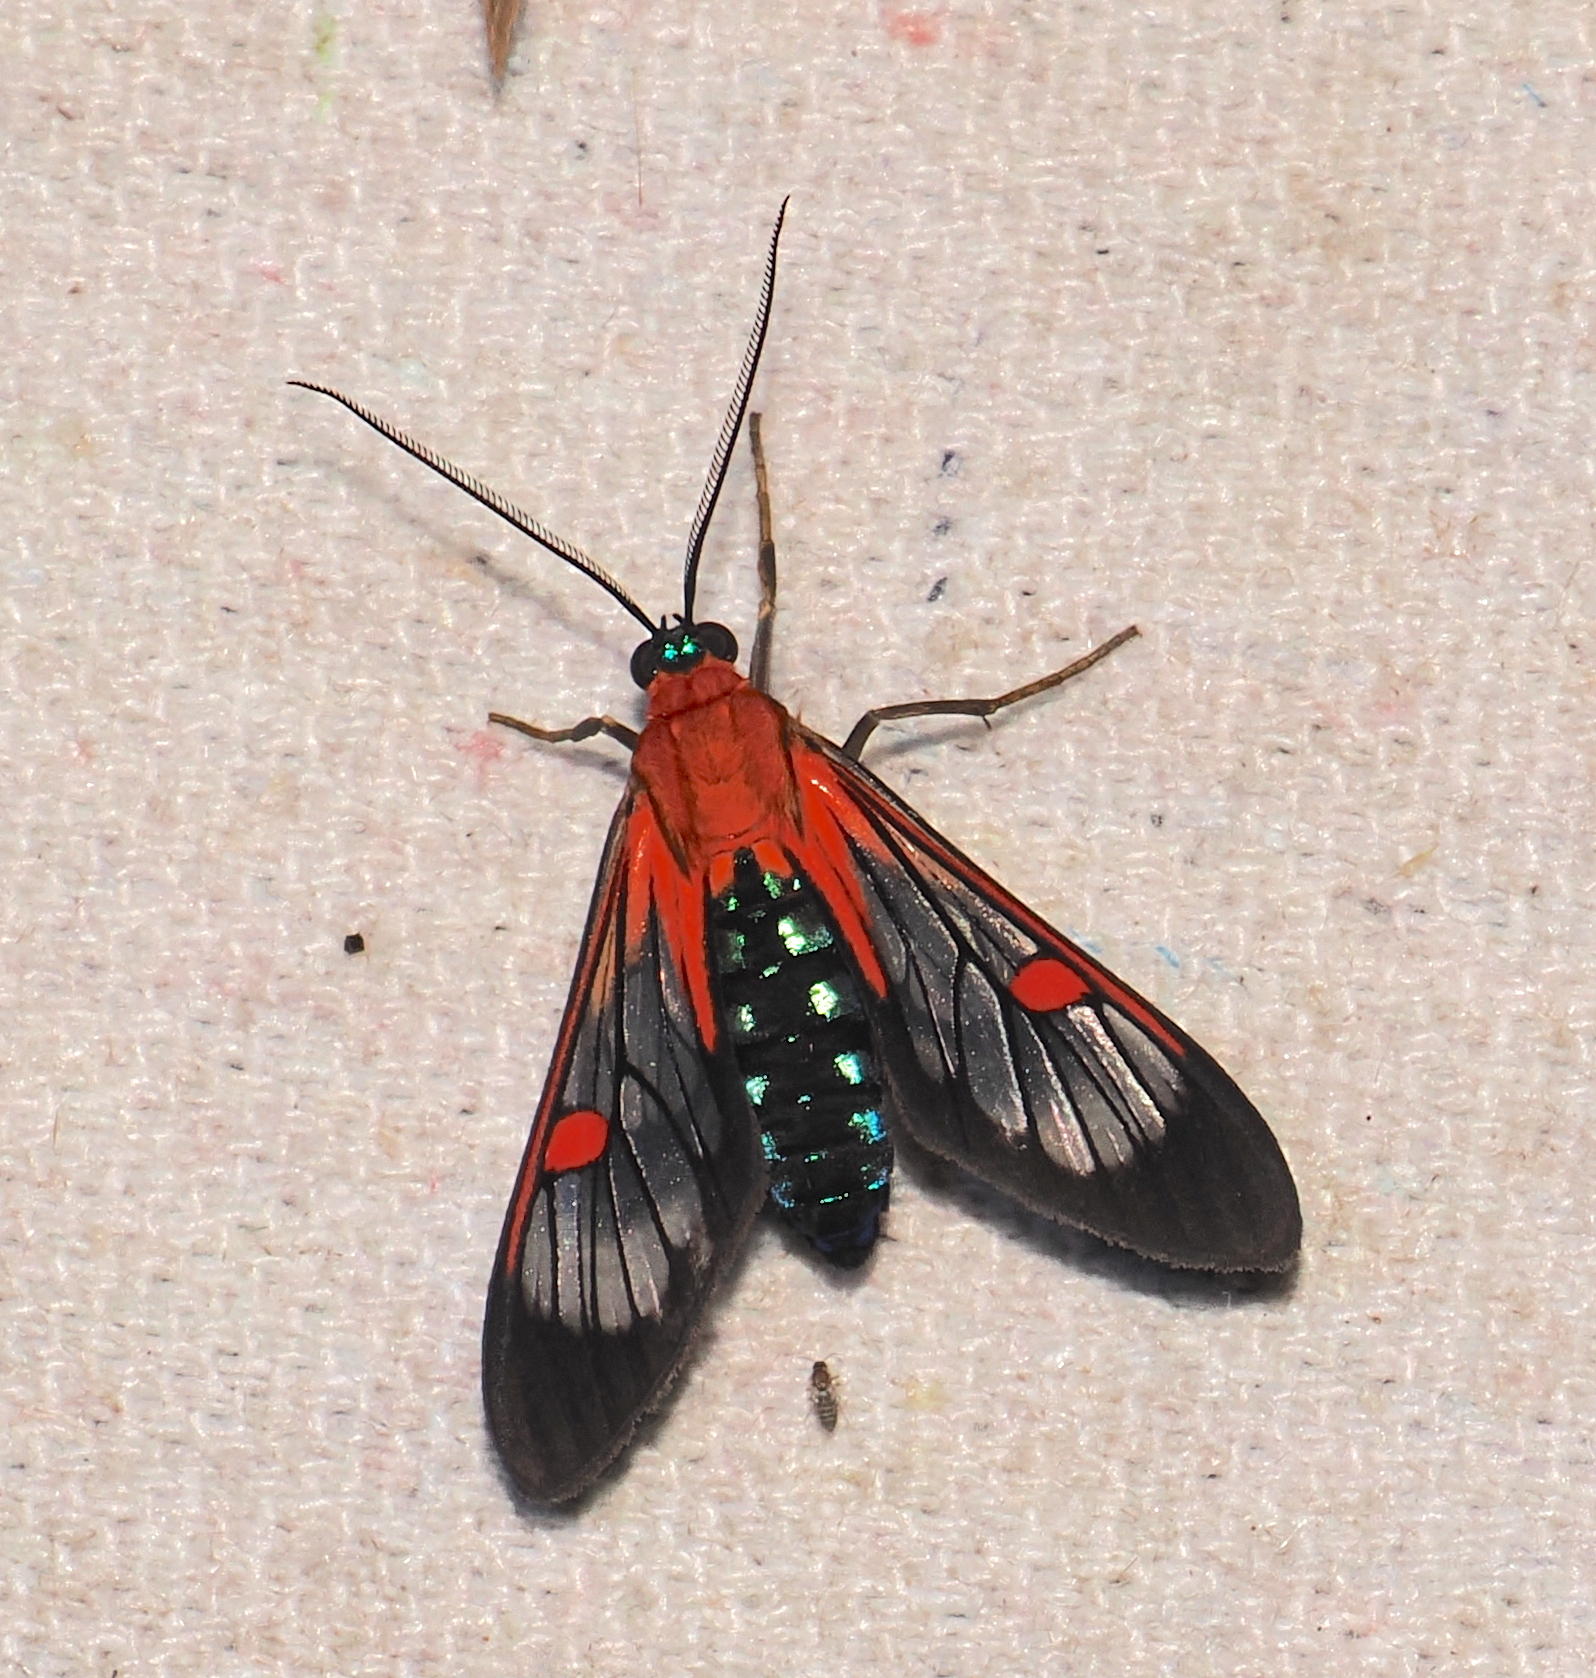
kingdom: Animalia
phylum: Arthropoda
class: Insecta
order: Lepidoptera
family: Erebidae
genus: Lepidoneiva
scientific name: Lepidoneiva teuthras
